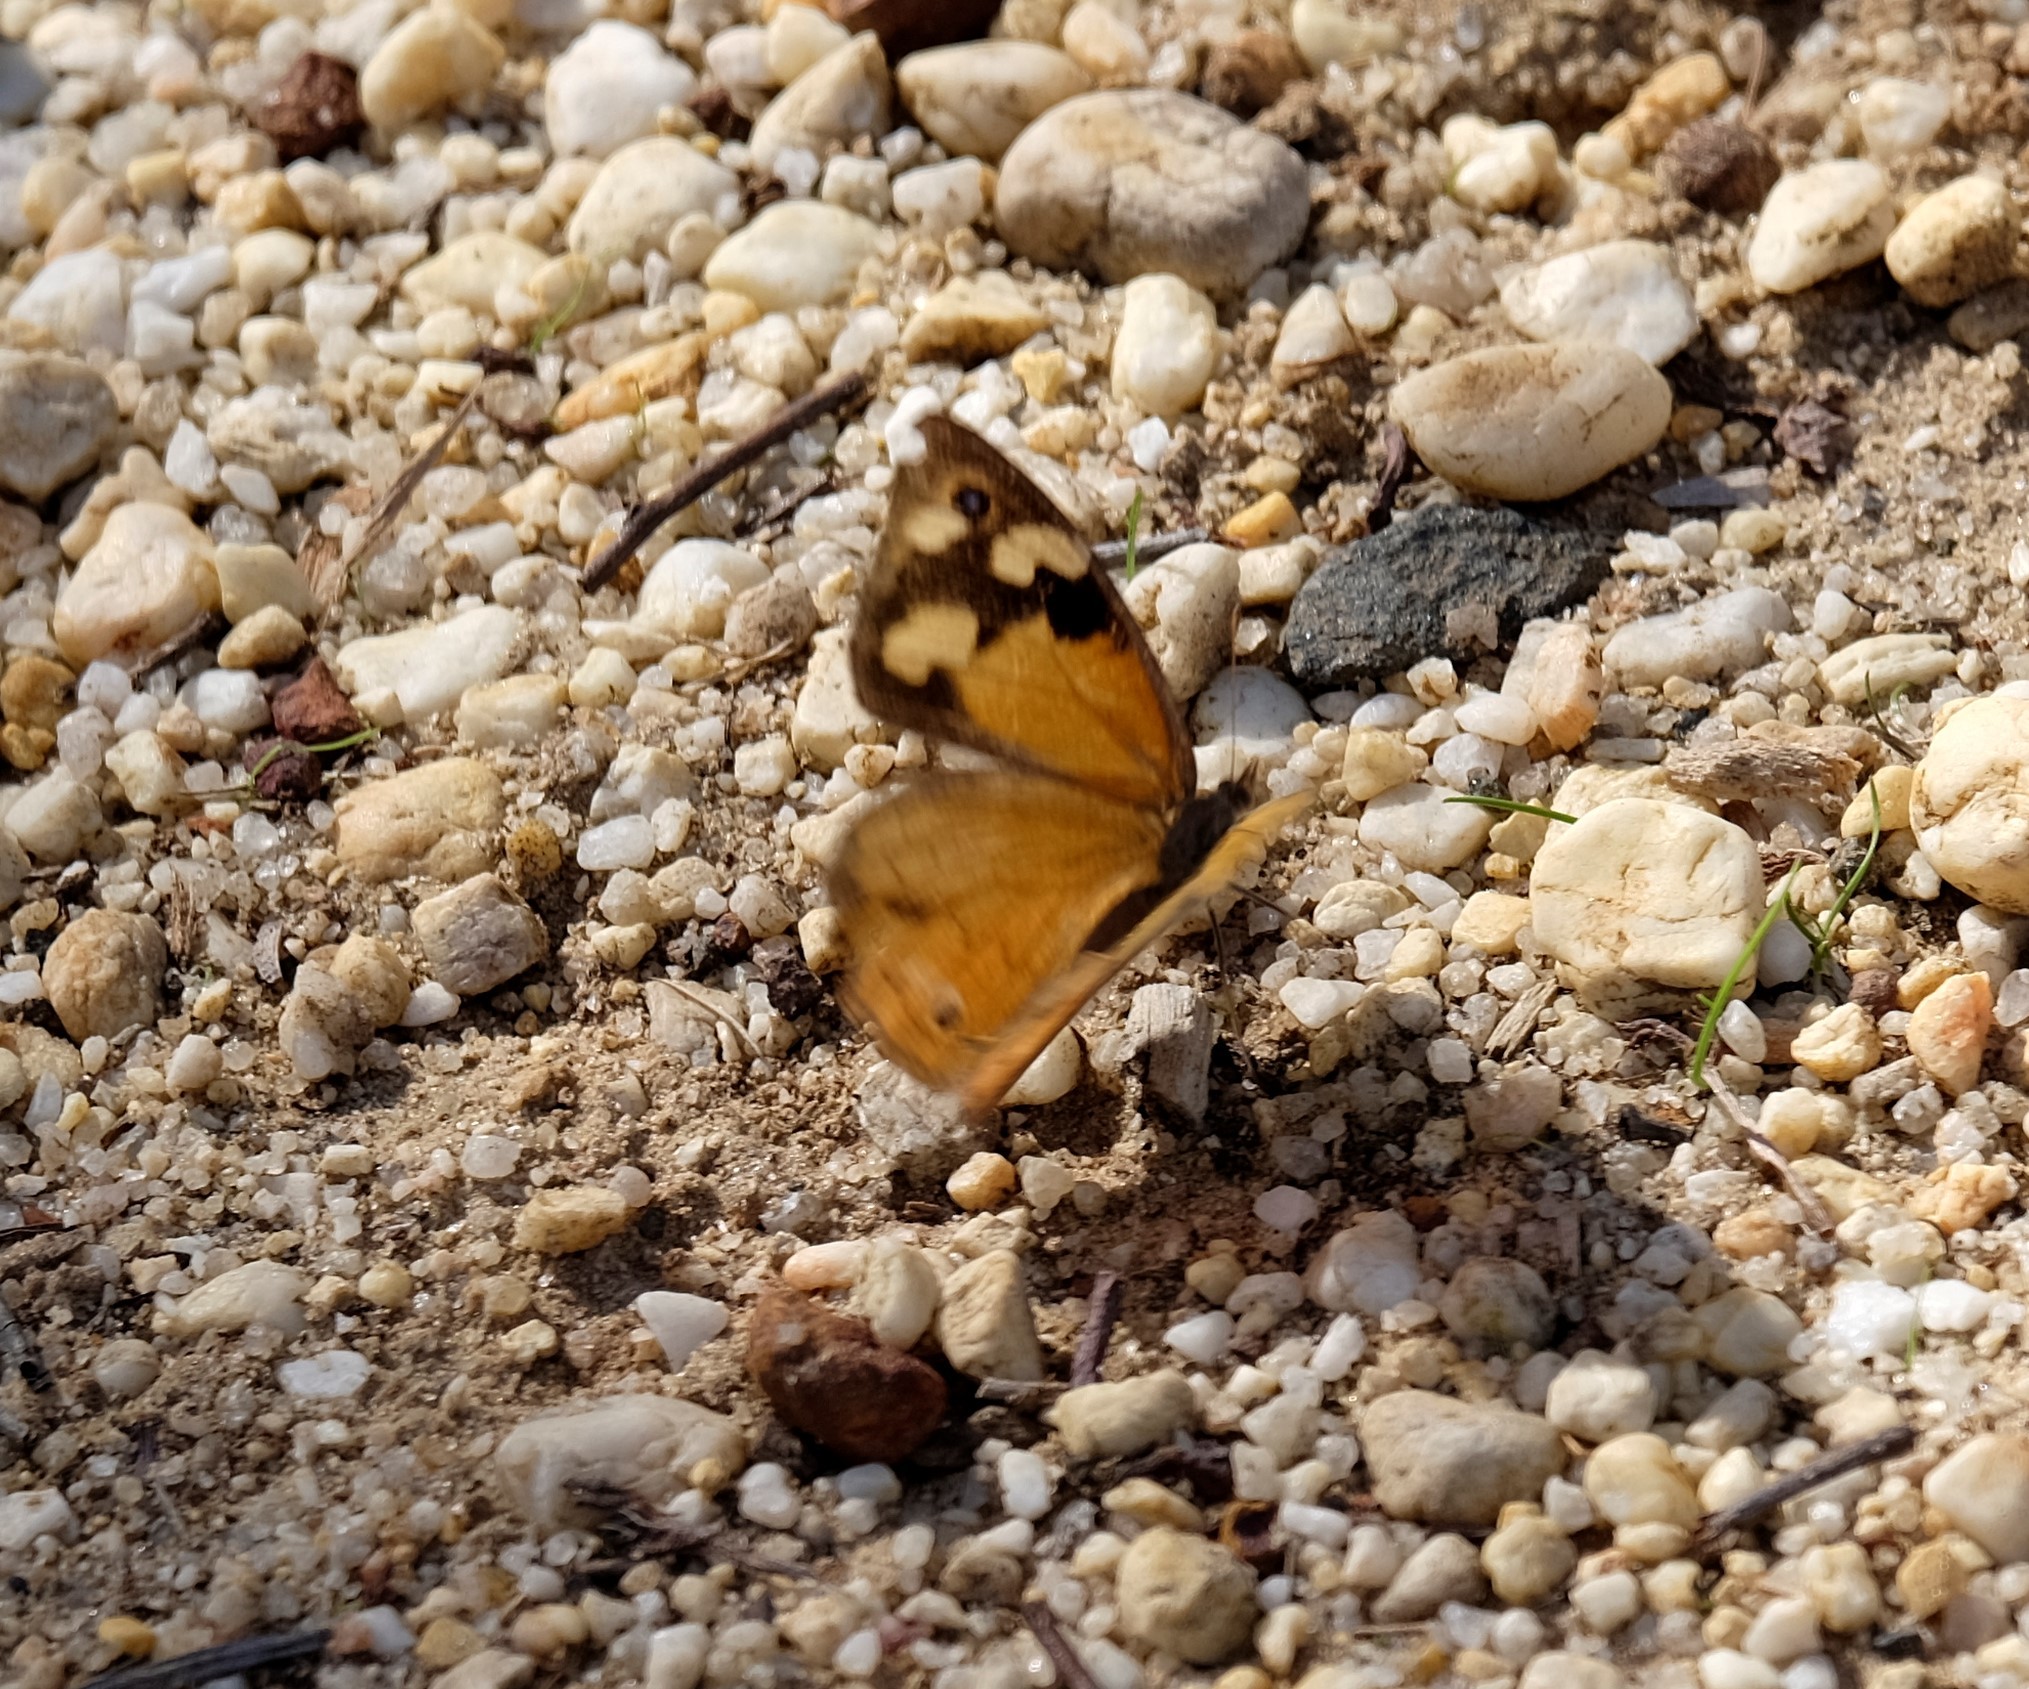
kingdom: Animalia
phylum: Arthropoda
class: Insecta
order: Lepidoptera
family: Nymphalidae
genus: Heteronympha
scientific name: Heteronympha merope
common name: Common brown
